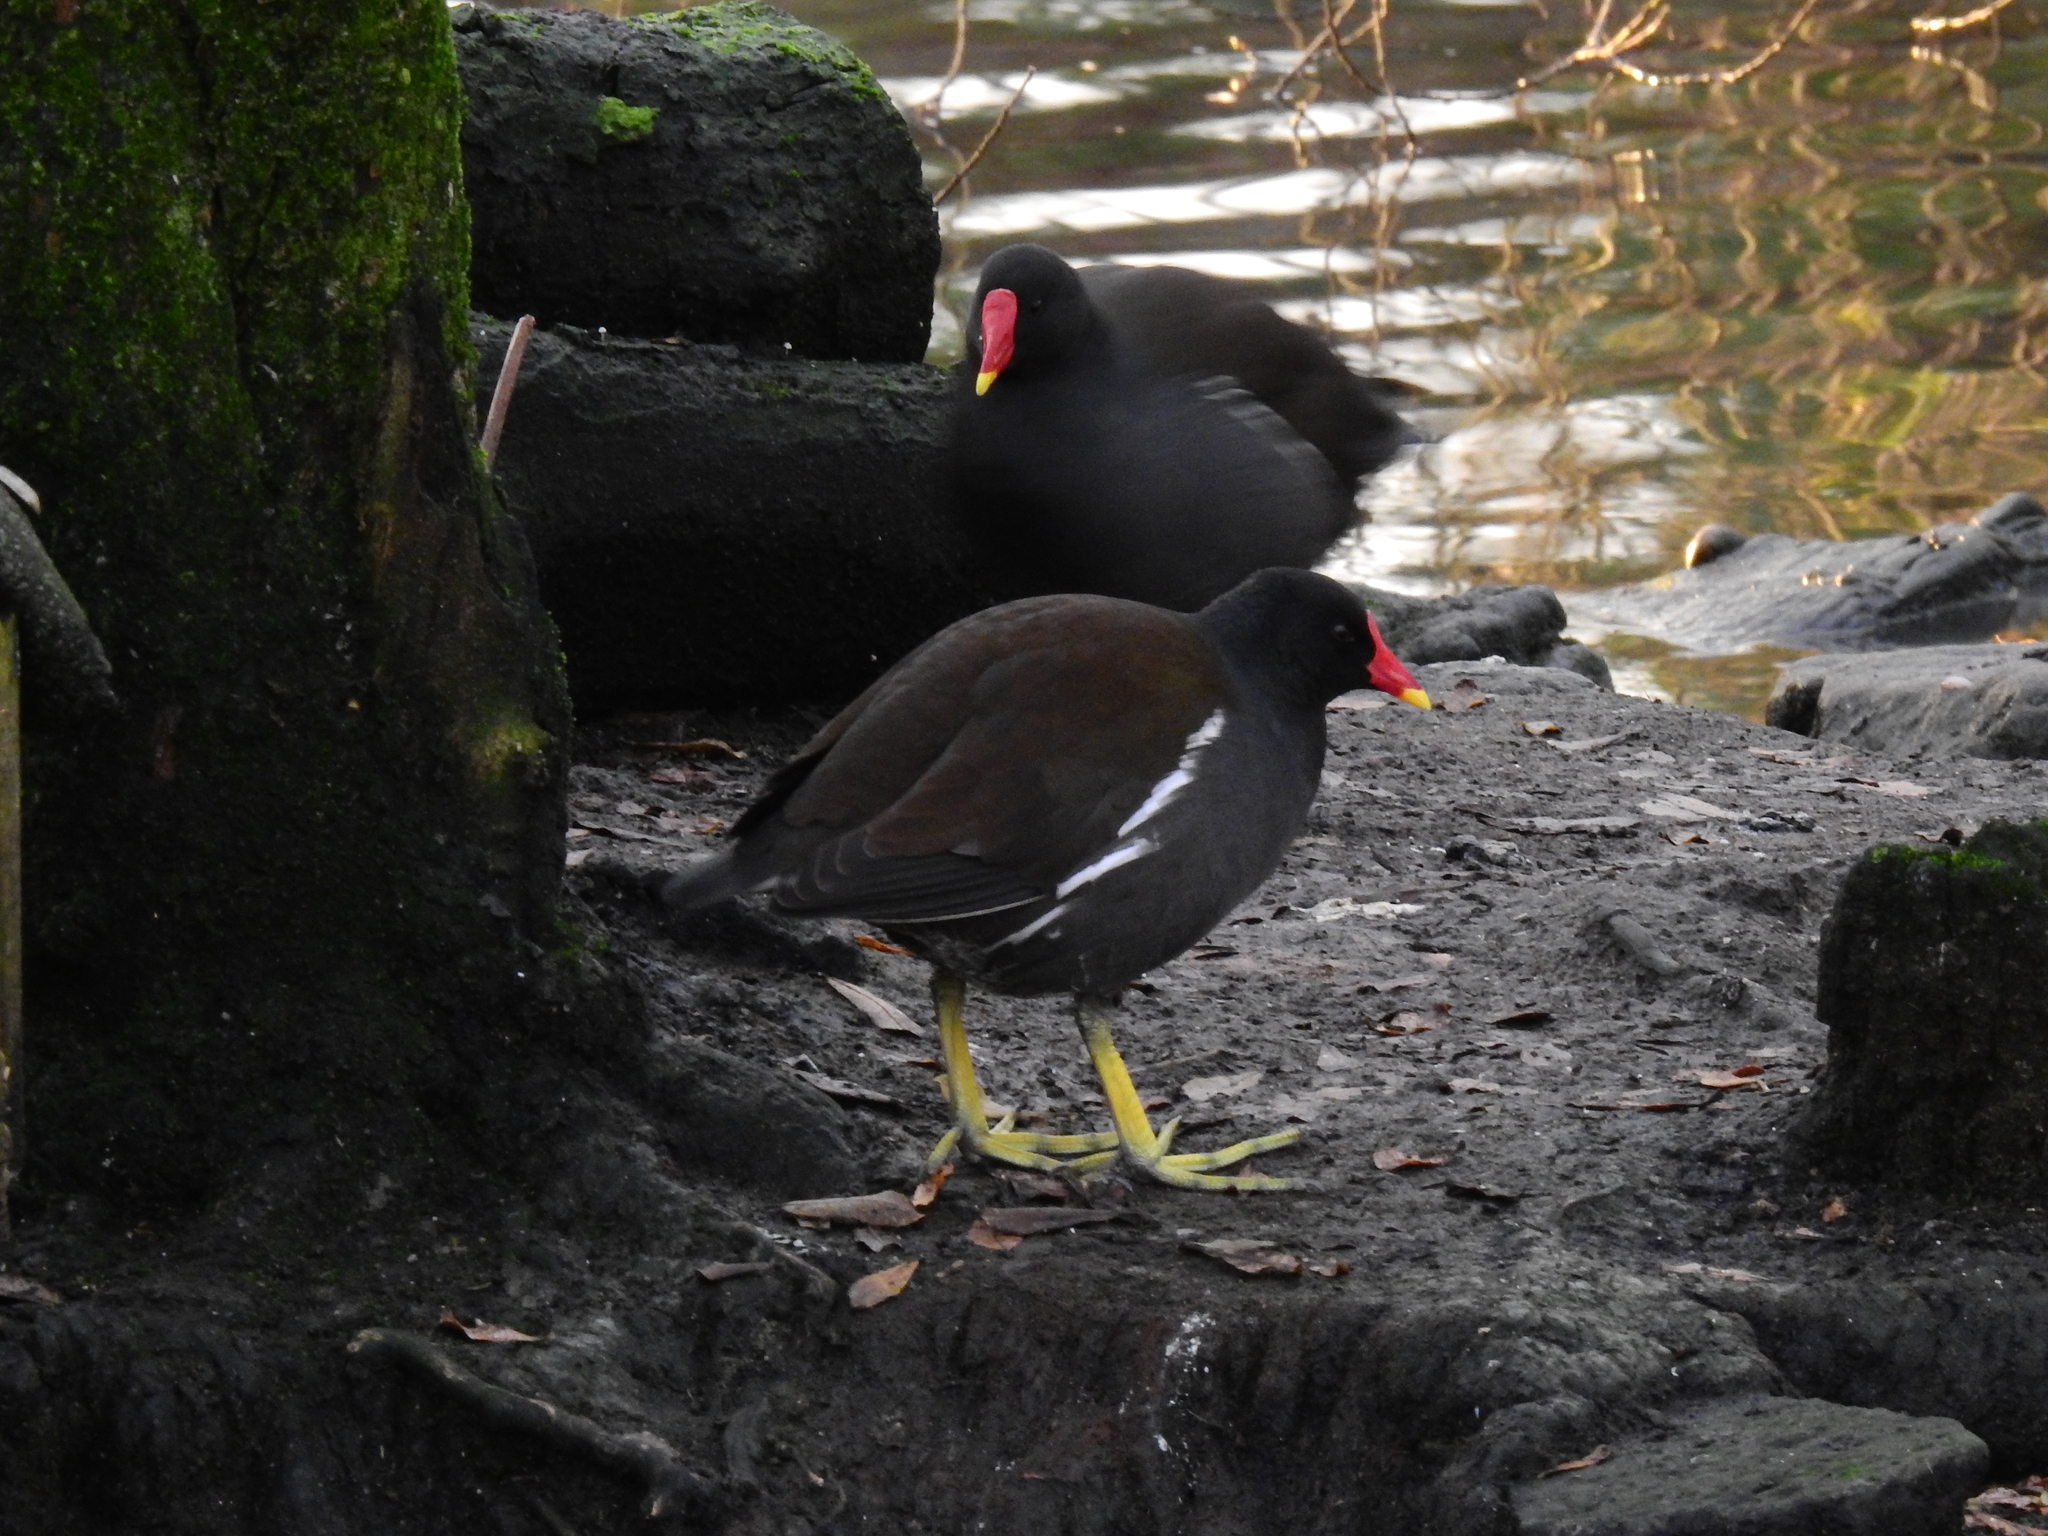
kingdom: Animalia
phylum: Chordata
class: Aves
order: Gruiformes
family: Rallidae
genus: Gallinula
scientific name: Gallinula chloropus
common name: Common moorhen
